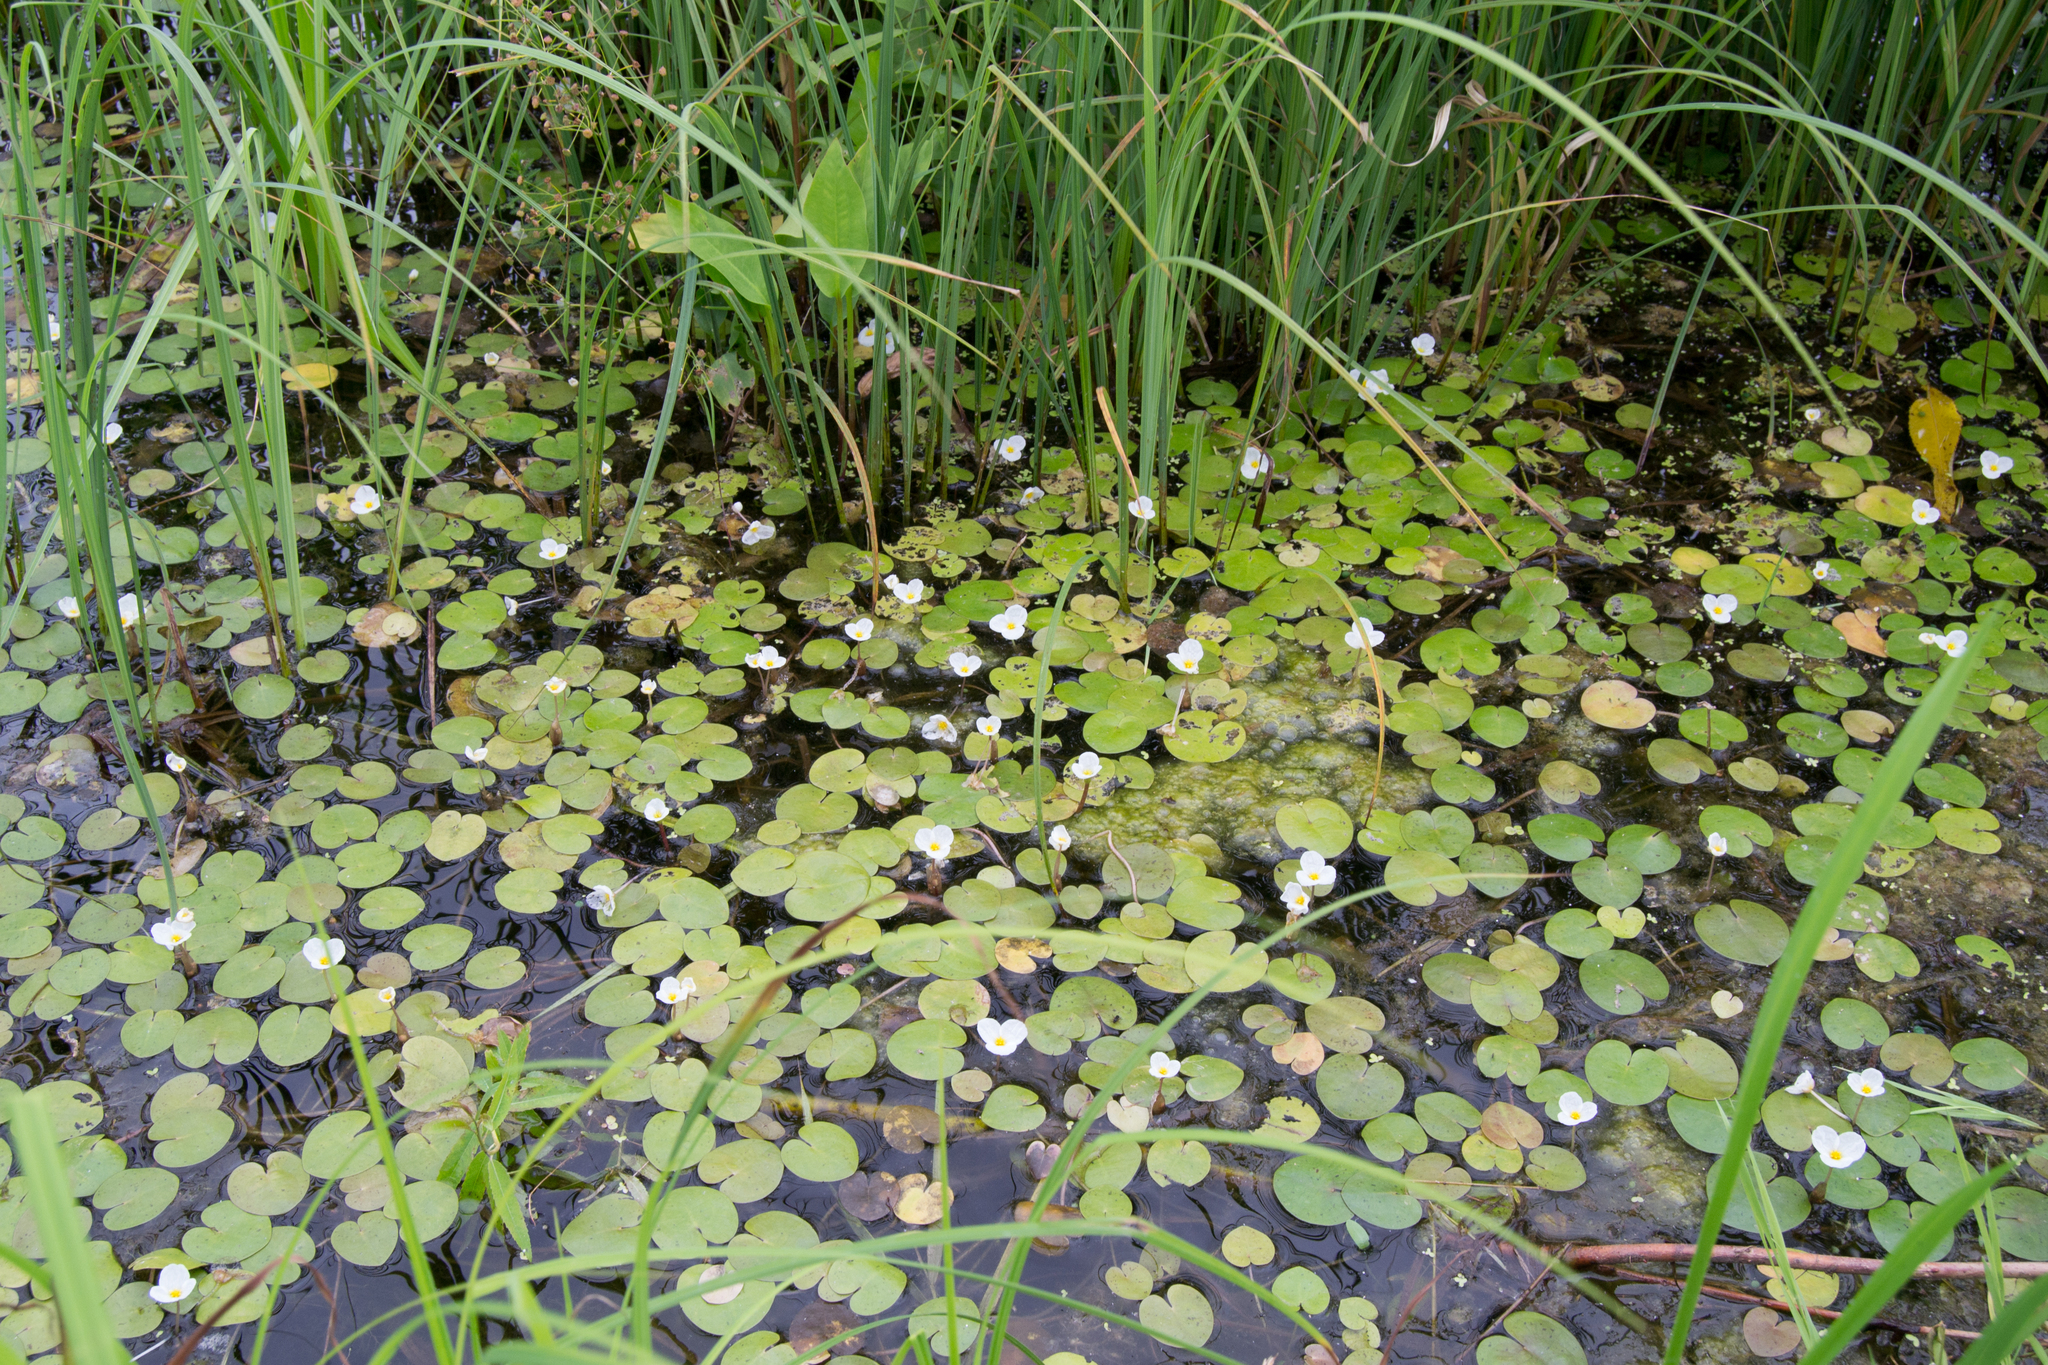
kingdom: Plantae
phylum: Tracheophyta
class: Liliopsida
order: Alismatales
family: Hydrocharitaceae
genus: Hydrocharis
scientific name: Hydrocharis morsus-ranae
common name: Frogbit
